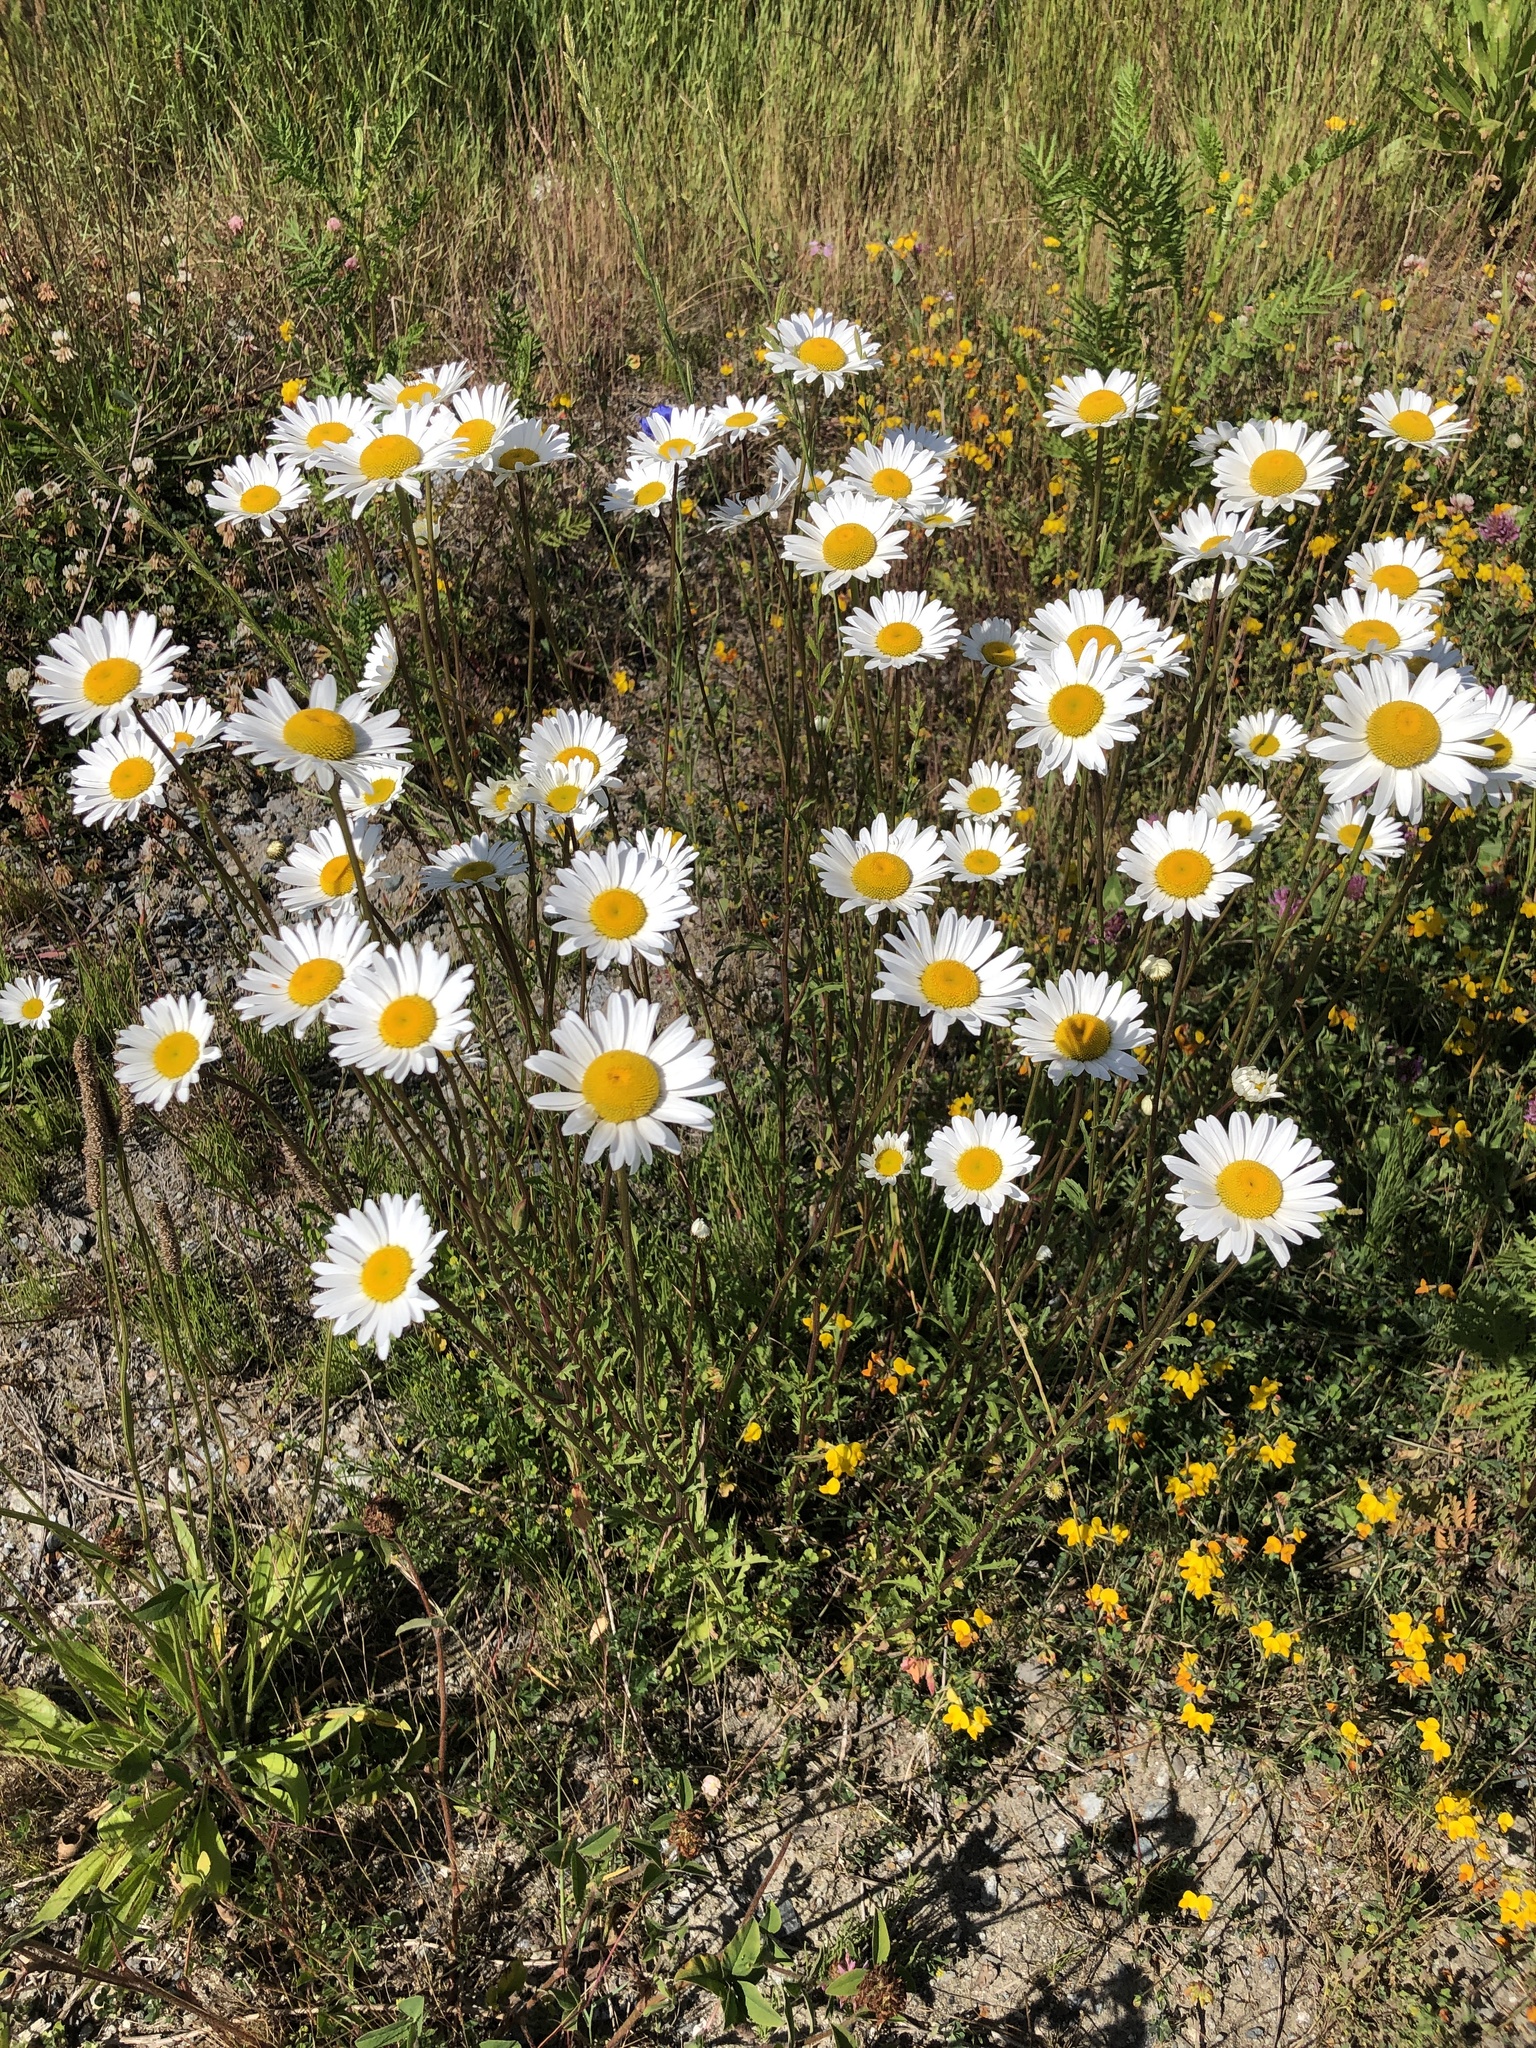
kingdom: Plantae
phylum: Tracheophyta
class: Magnoliopsida
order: Asterales
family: Asteraceae
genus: Leucanthemum
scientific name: Leucanthemum vulgare
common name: Oxeye daisy
